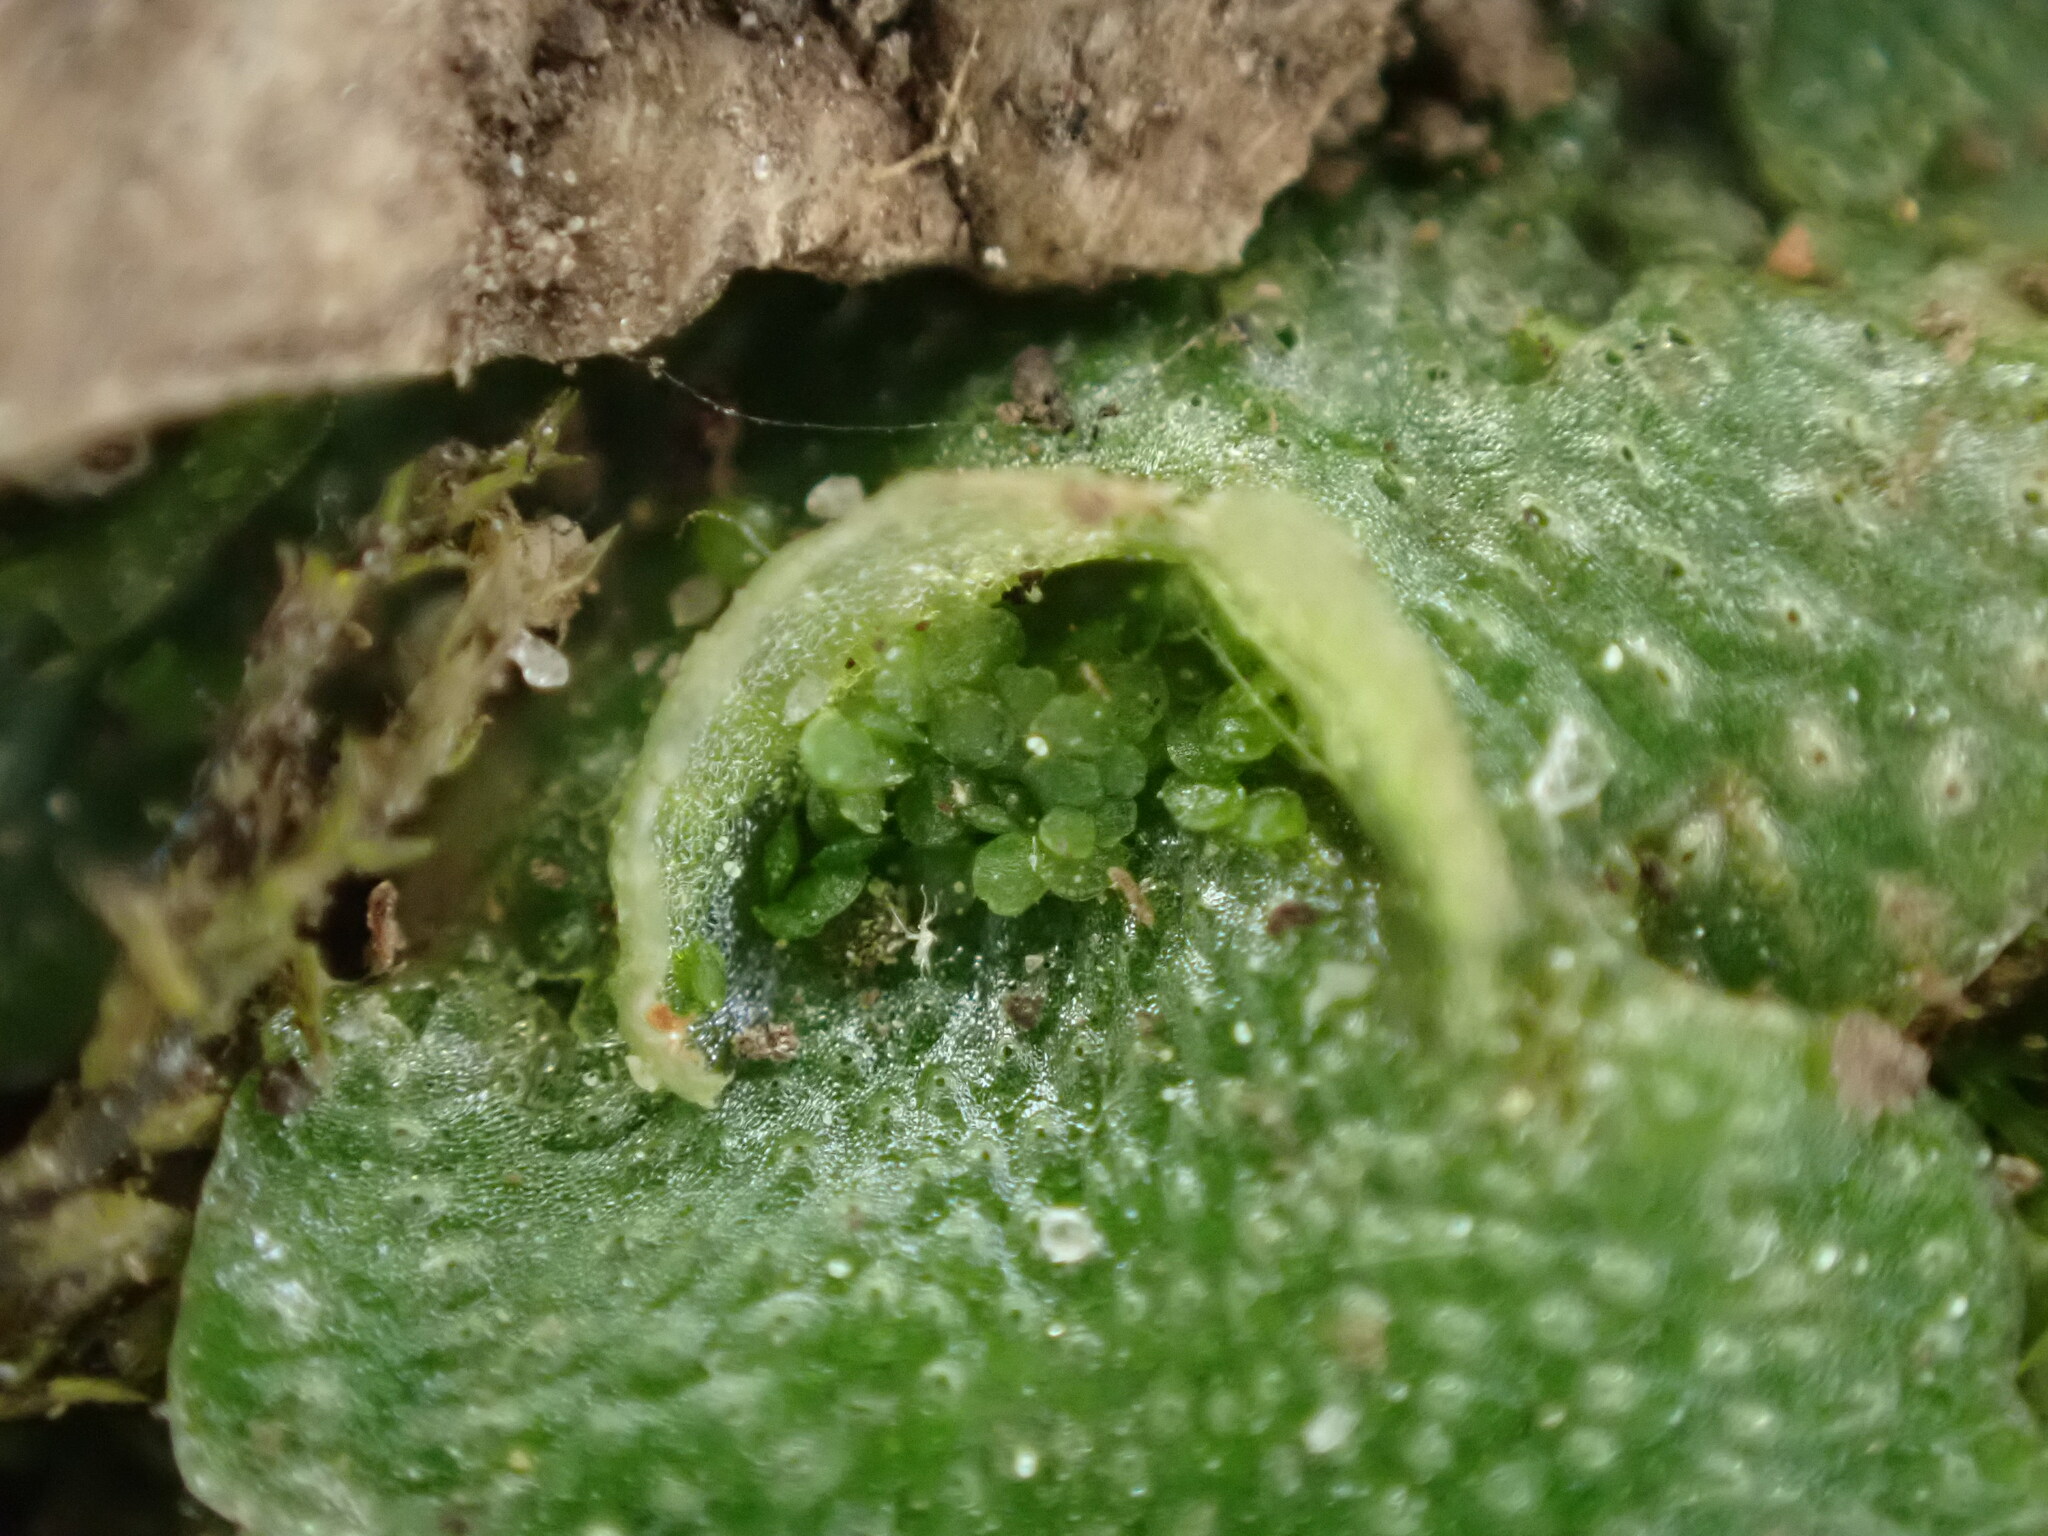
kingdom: Plantae
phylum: Marchantiophyta
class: Marchantiopsida
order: Lunulariales
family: Lunulariaceae
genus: Lunularia
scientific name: Lunularia cruciata
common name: Crescent-cup liverwort
